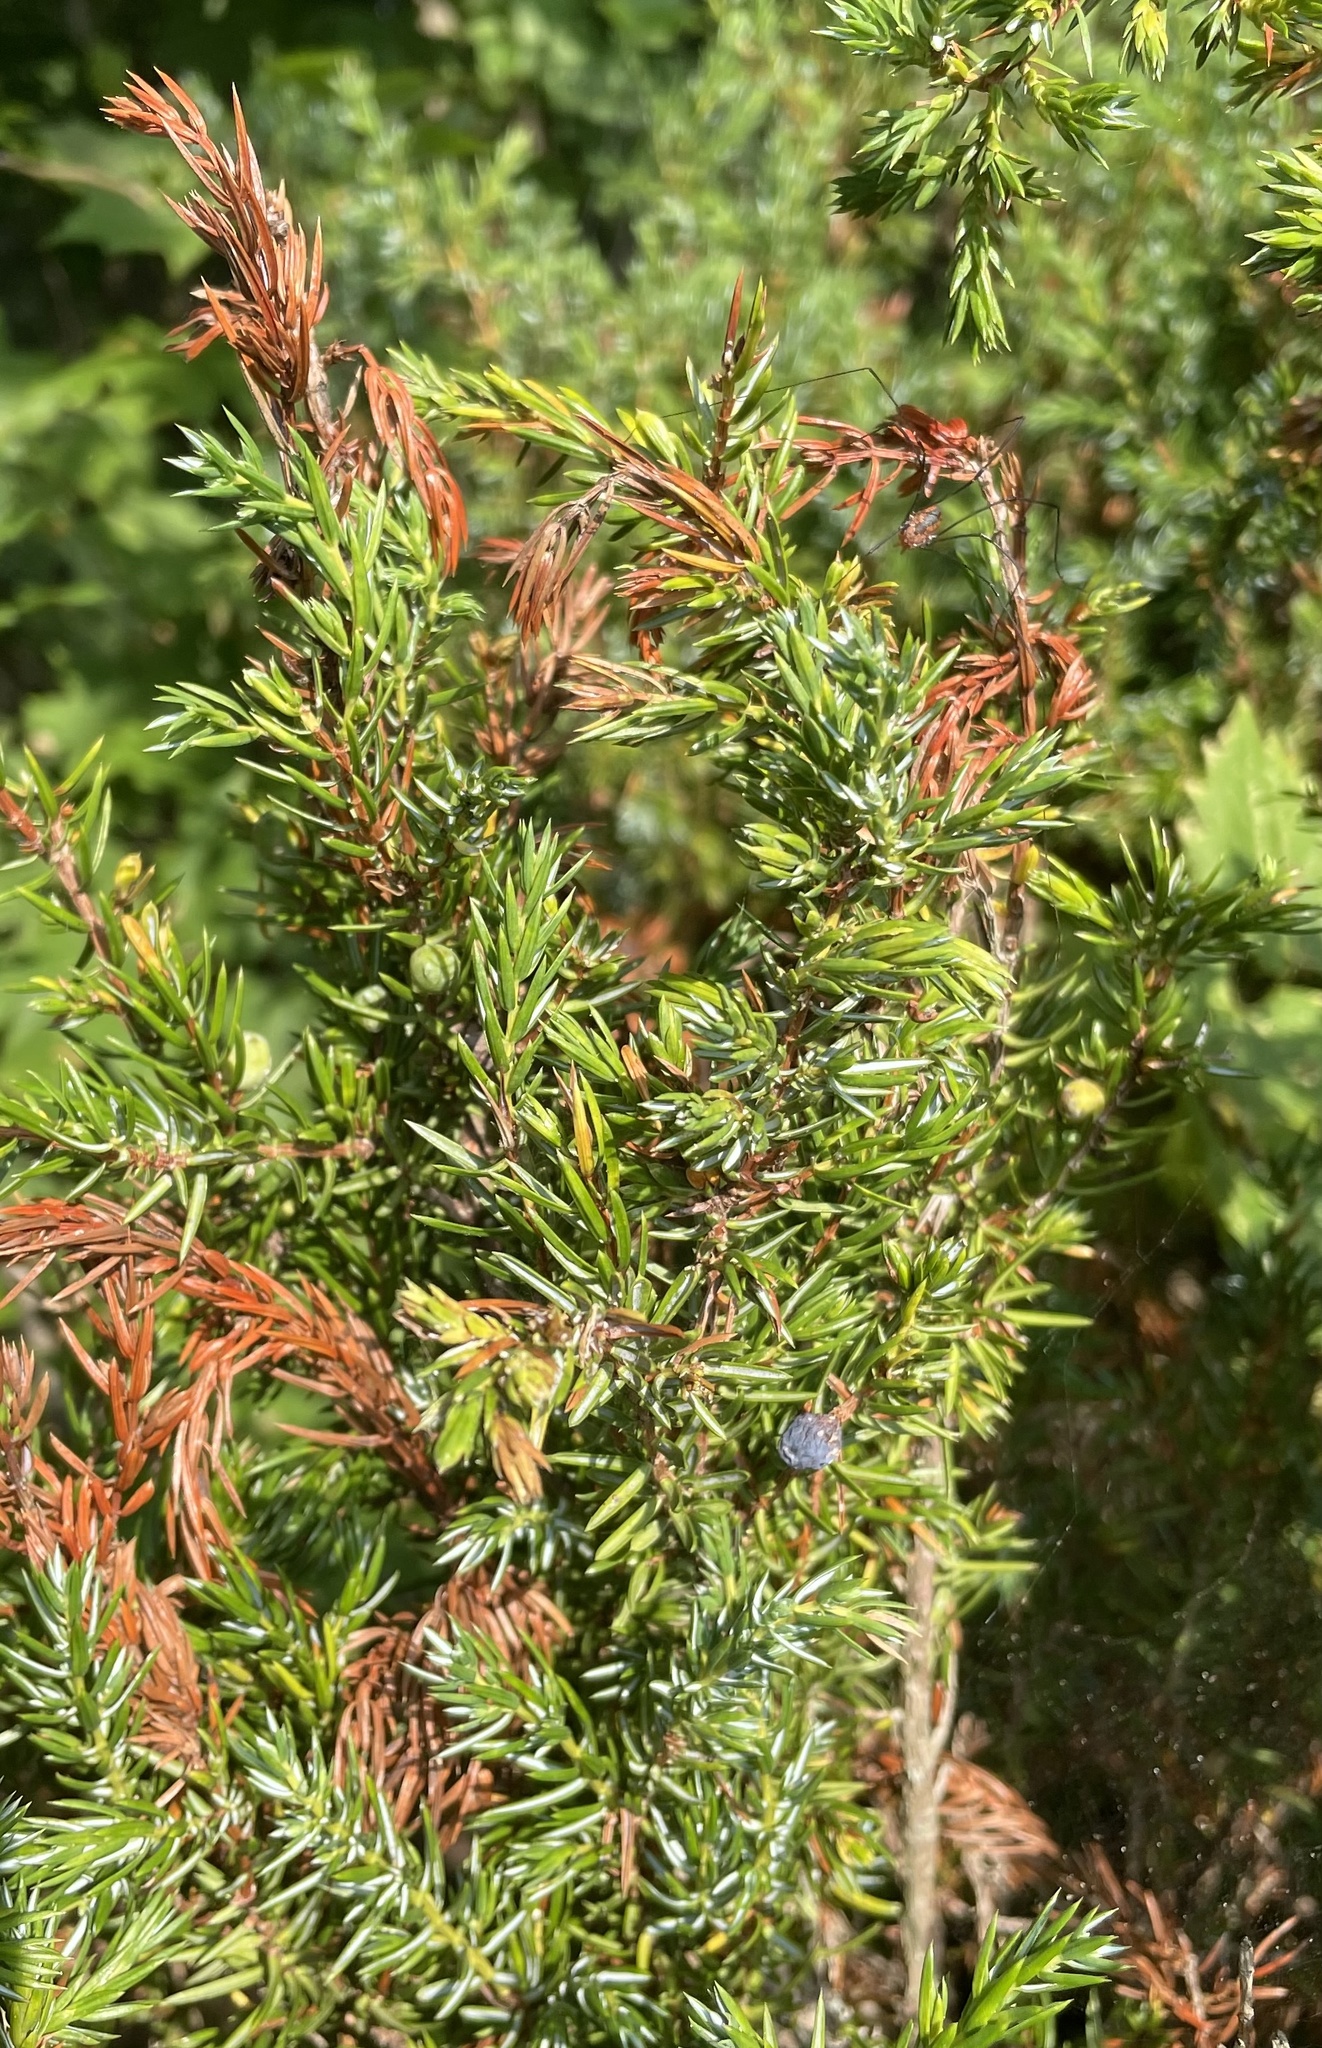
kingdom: Plantae
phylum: Tracheophyta
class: Pinopsida
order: Pinales
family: Cupressaceae
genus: Juniperus
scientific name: Juniperus communis
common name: Common juniper
